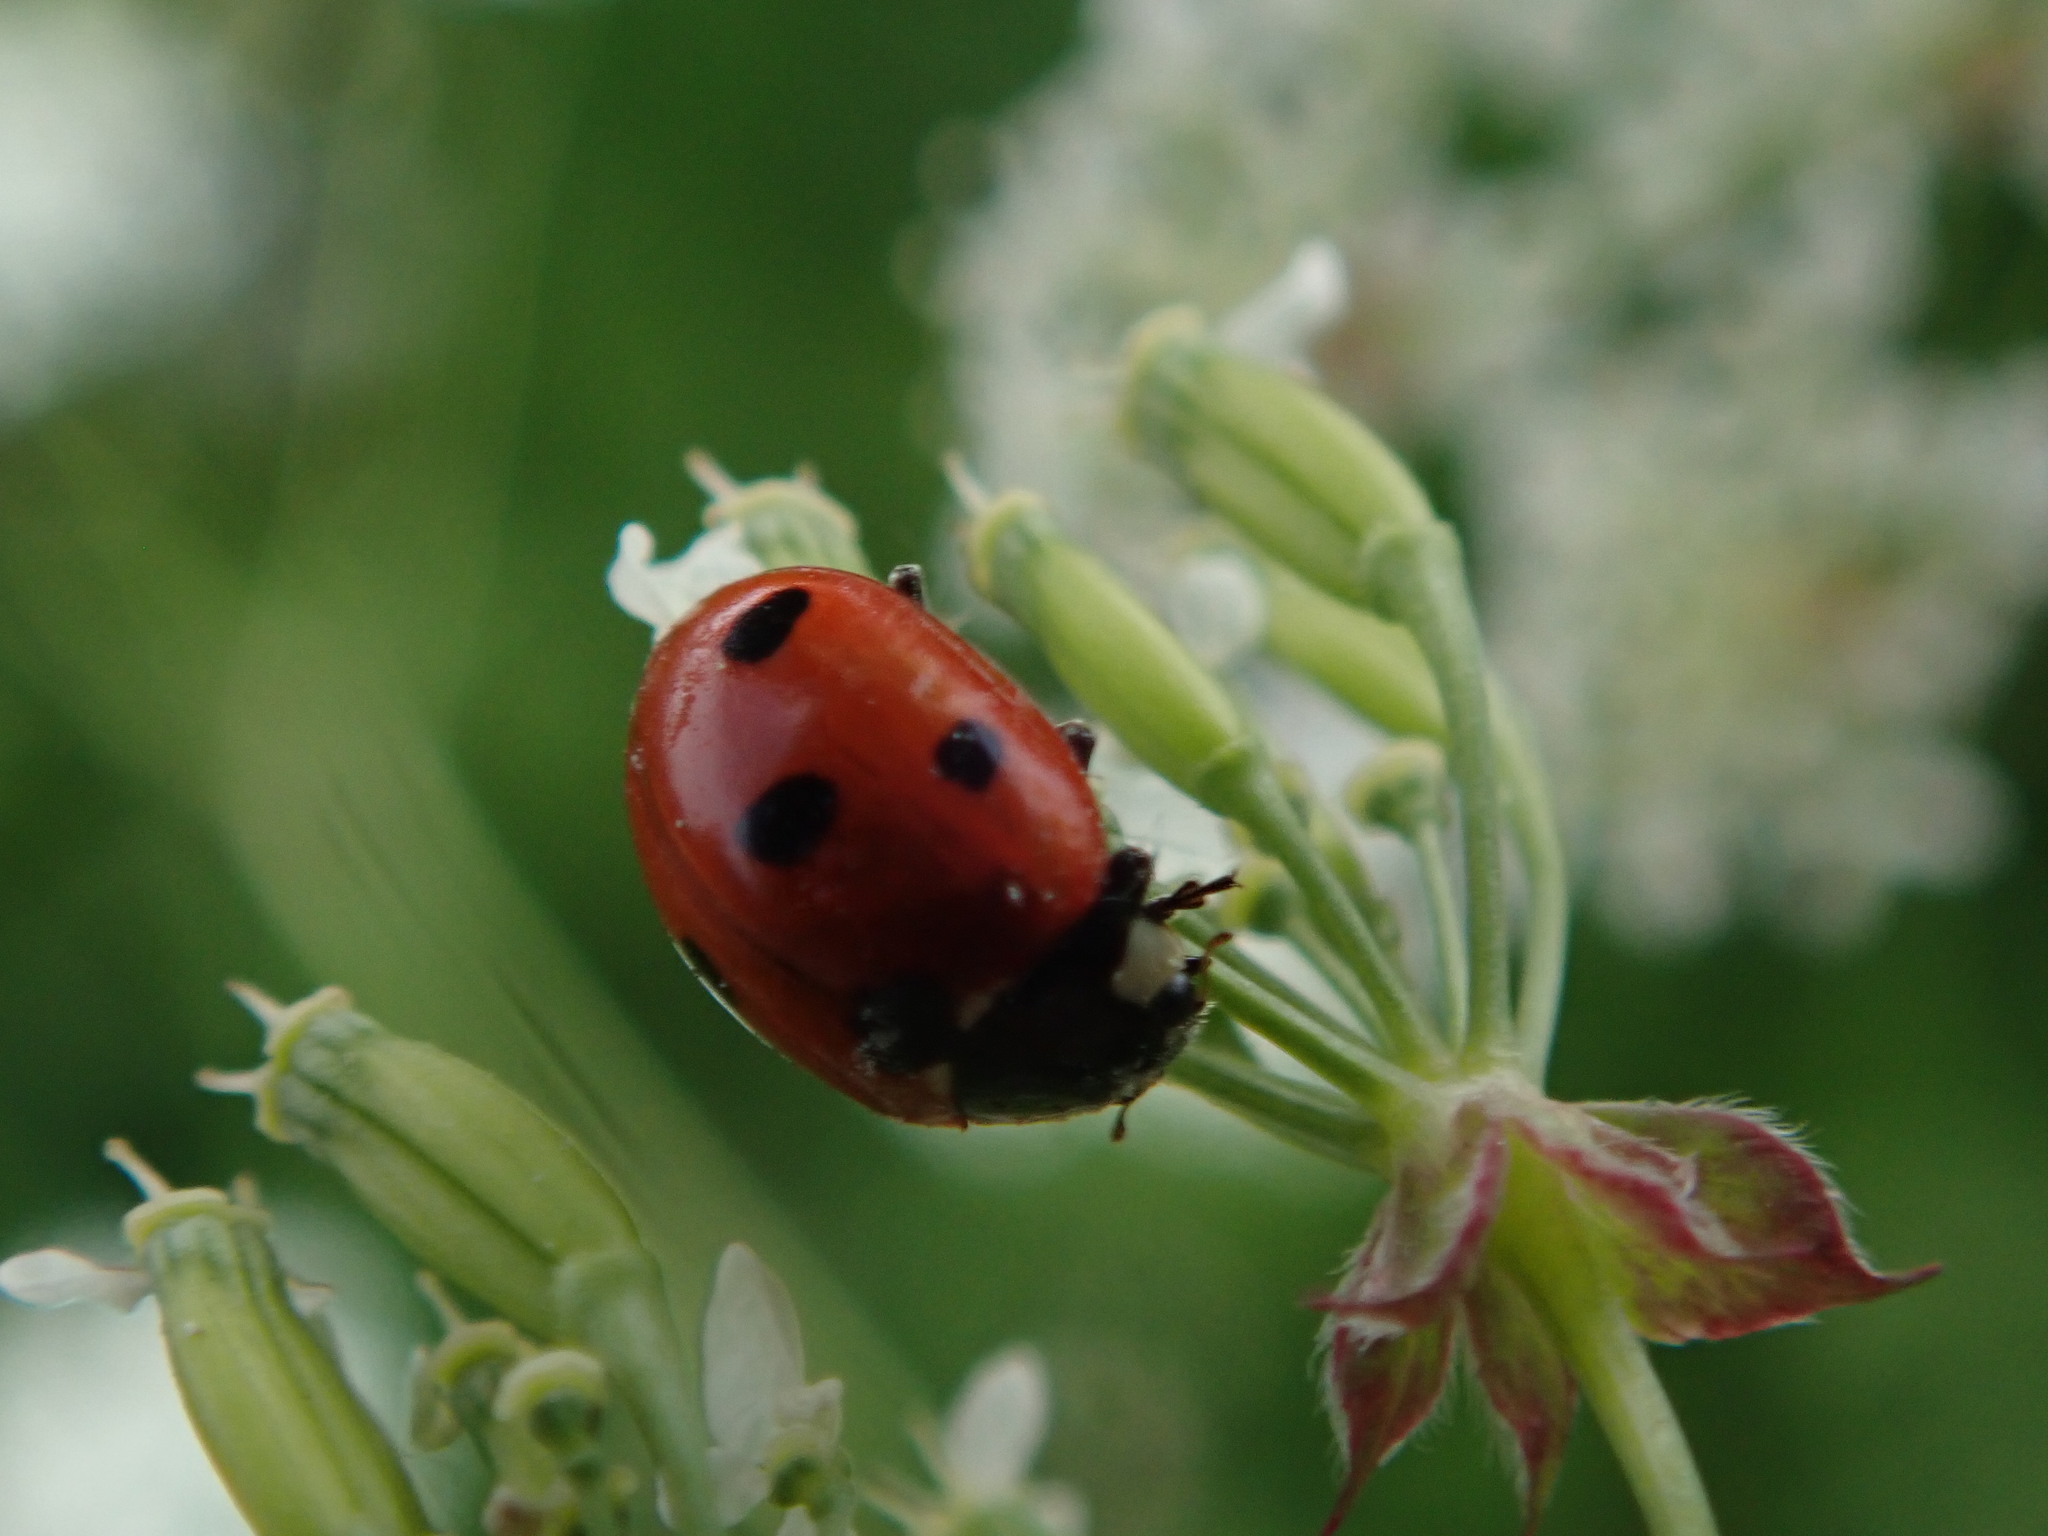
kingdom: Animalia
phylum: Arthropoda
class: Insecta
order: Coleoptera
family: Coccinellidae
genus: Coccinella
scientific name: Coccinella septempunctata
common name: Sevenspotted lady beetle
